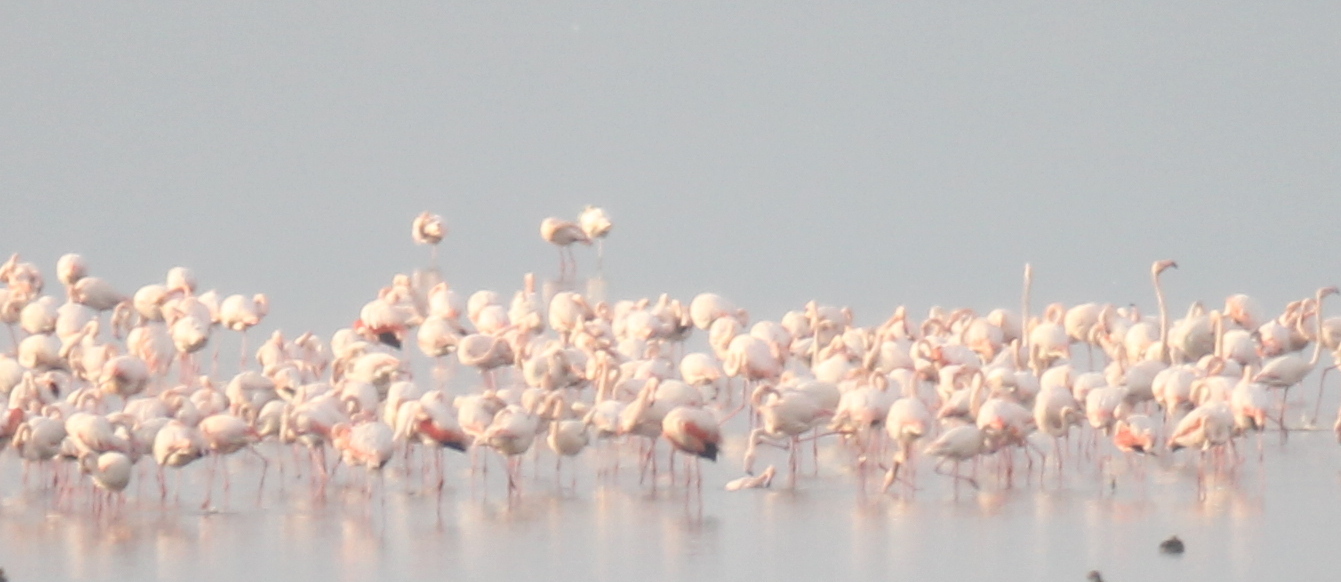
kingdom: Animalia
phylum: Chordata
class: Aves
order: Phoenicopteriformes
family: Phoenicopteridae
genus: Phoenicopterus
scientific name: Phoenicopterus roseus
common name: Greater flamingo
